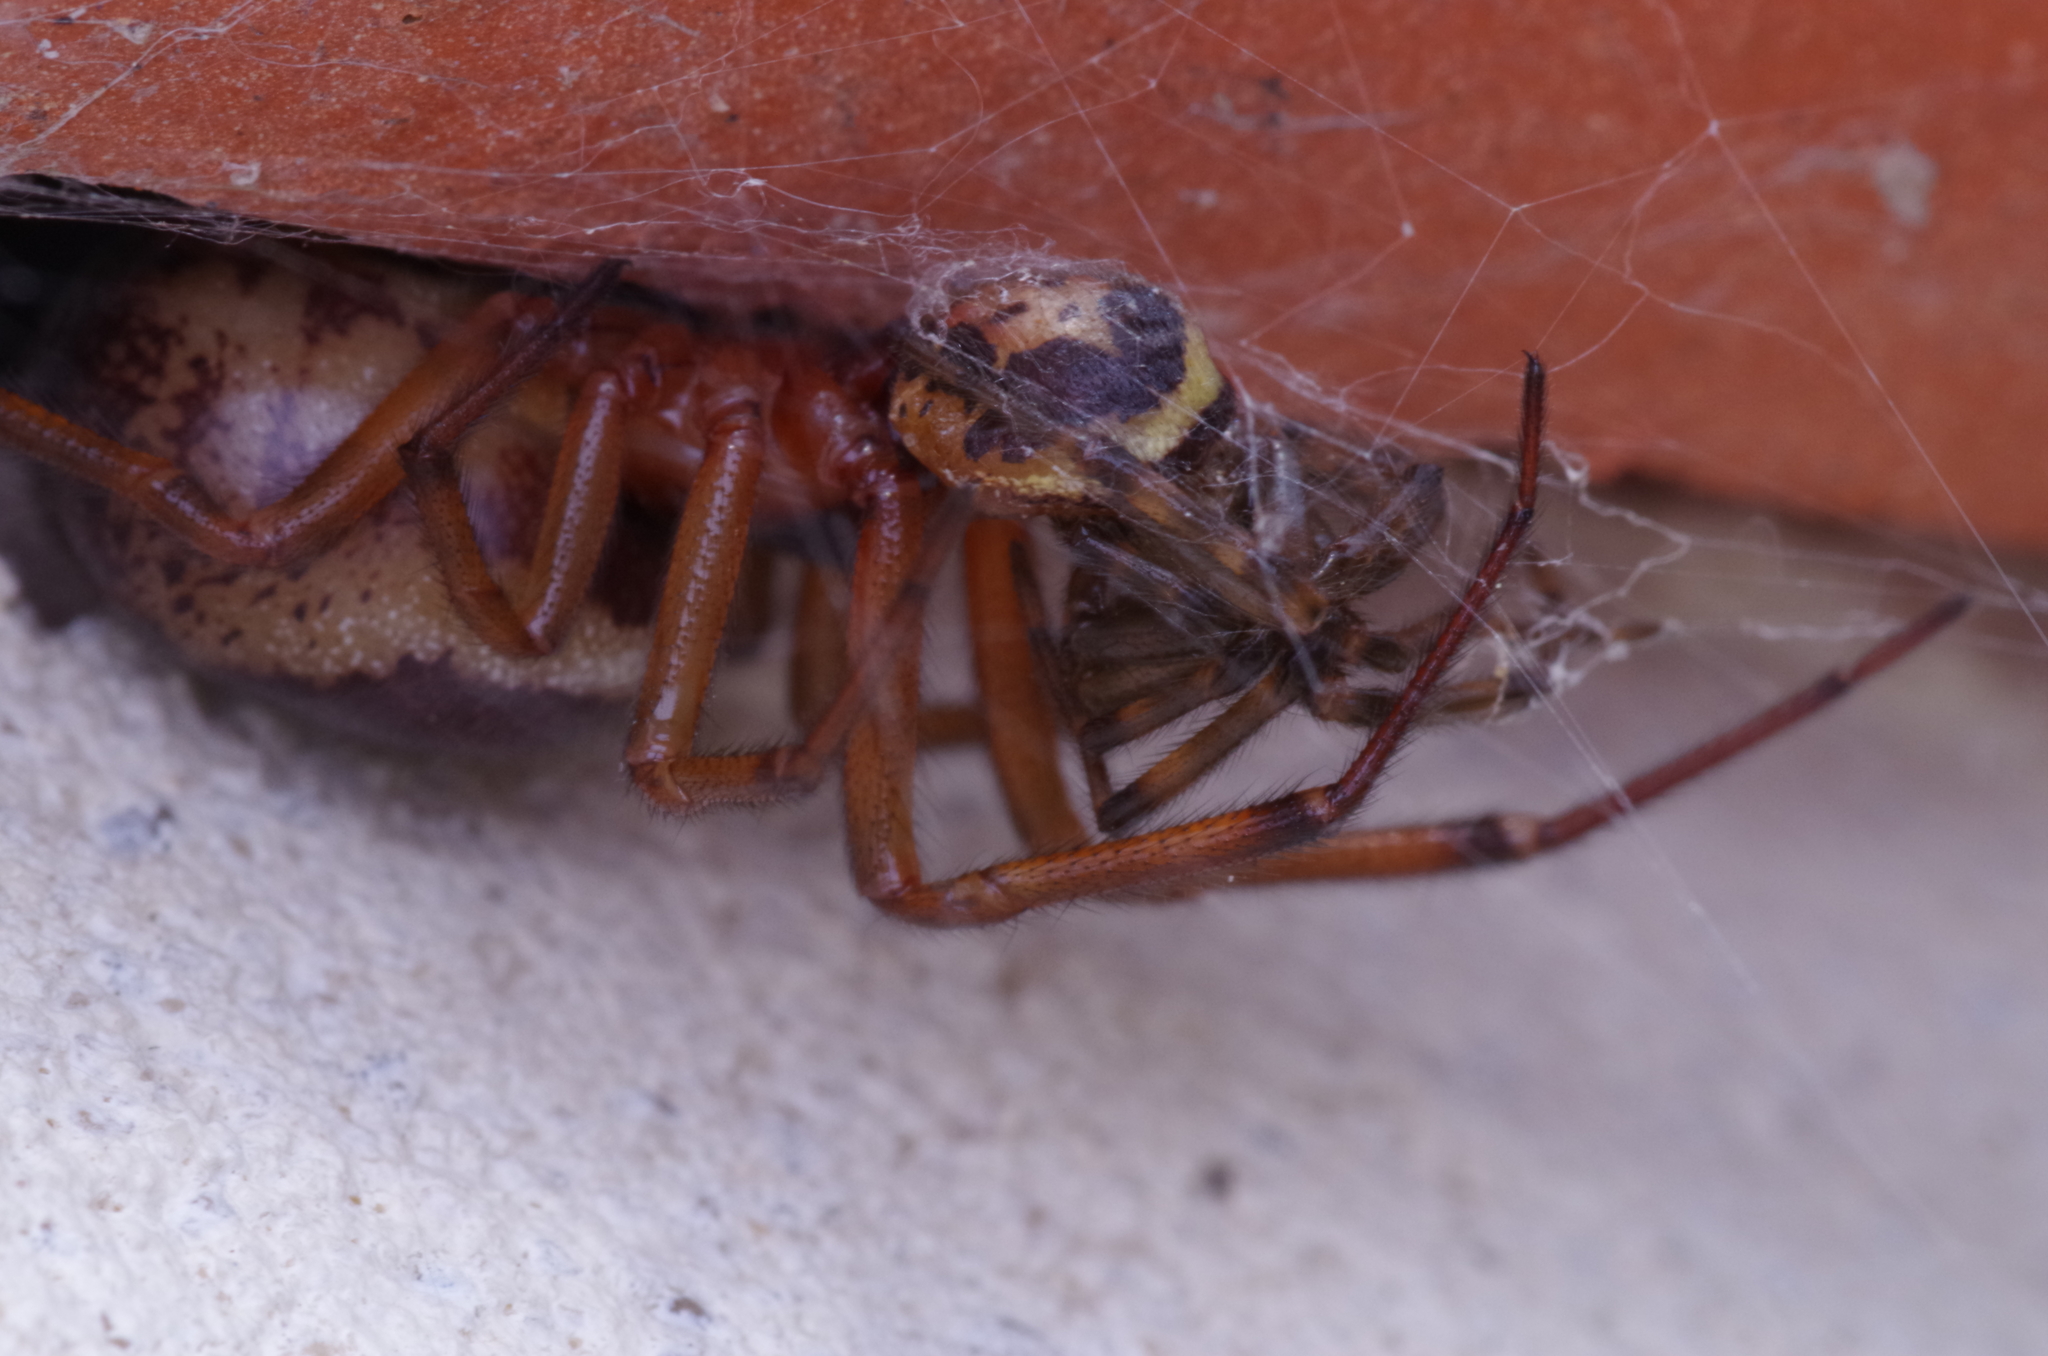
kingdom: Animalia
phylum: Arthropoda
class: Arachnida
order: Araneae
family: Theridiidae
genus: Steatoda
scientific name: Steatoda nobilis
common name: Cobweb weaver
